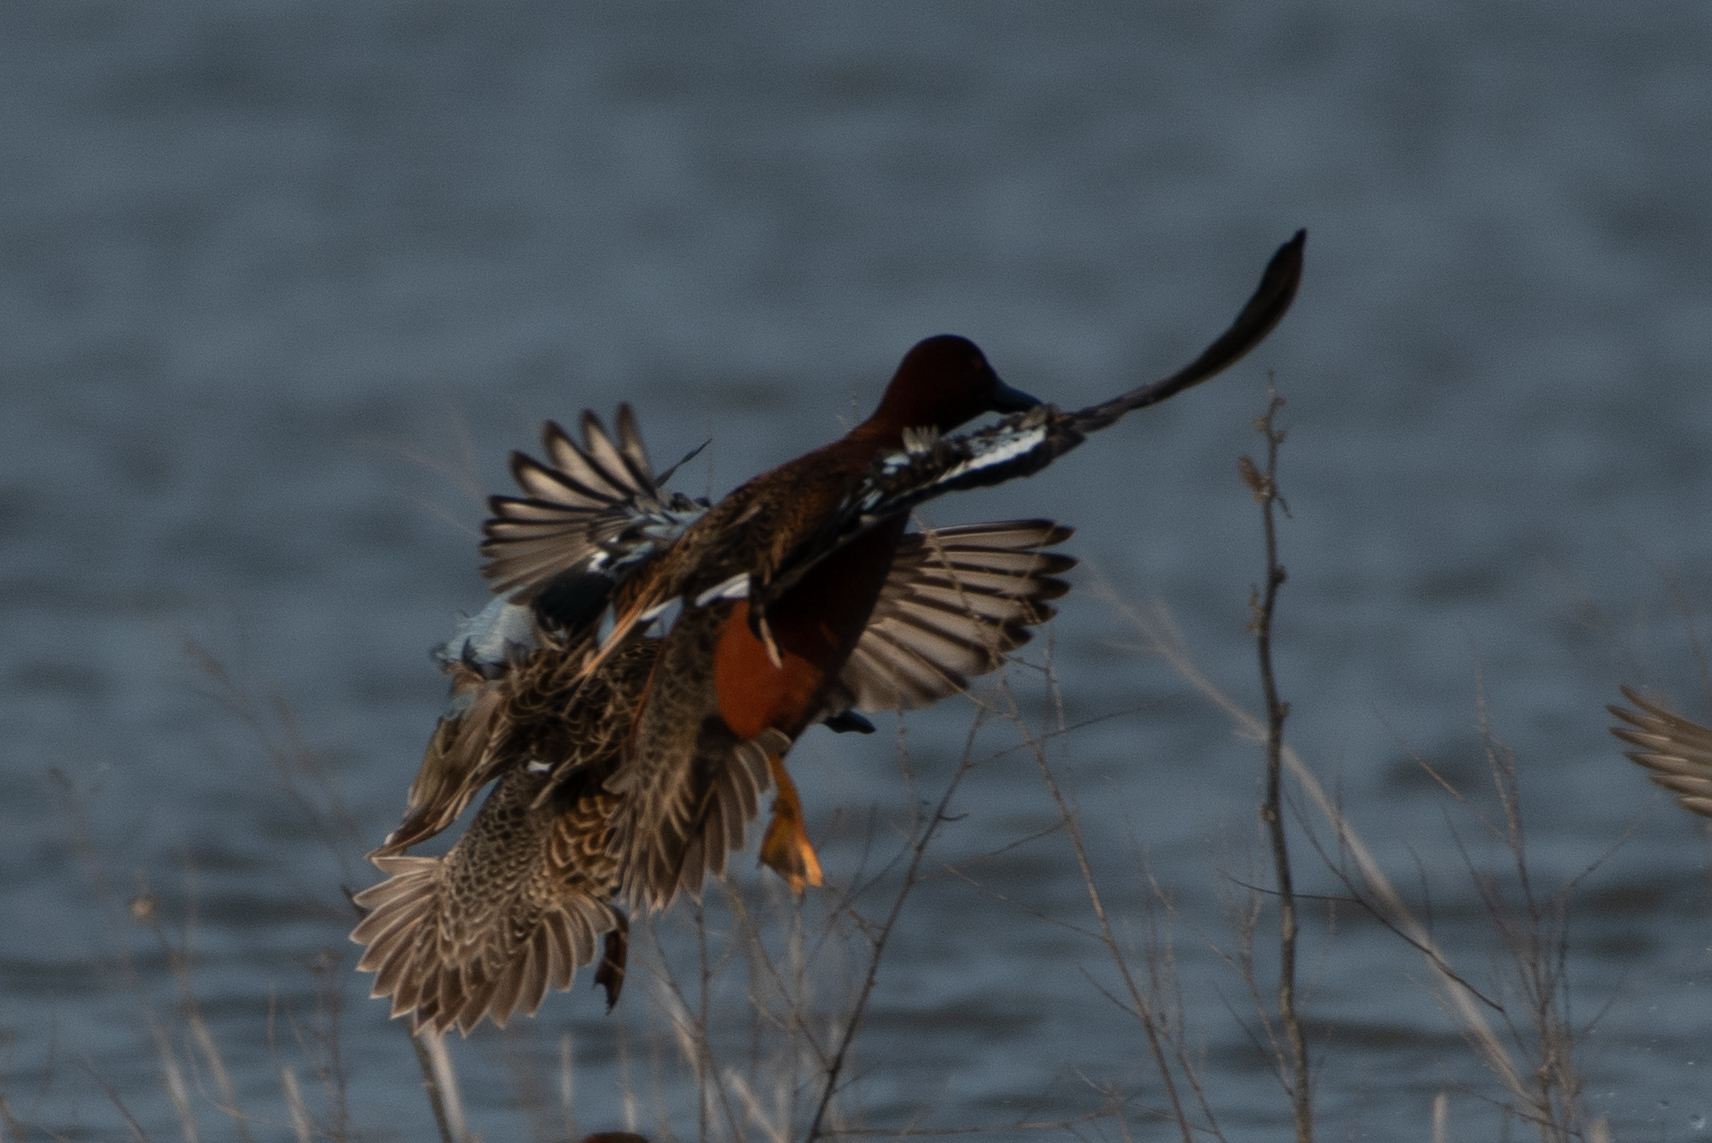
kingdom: Animalia
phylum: Chordata
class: Aves
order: Anseriformes
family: Anatidae
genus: Spatula
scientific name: Spatula cyanoptera
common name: Cinnamon teal
